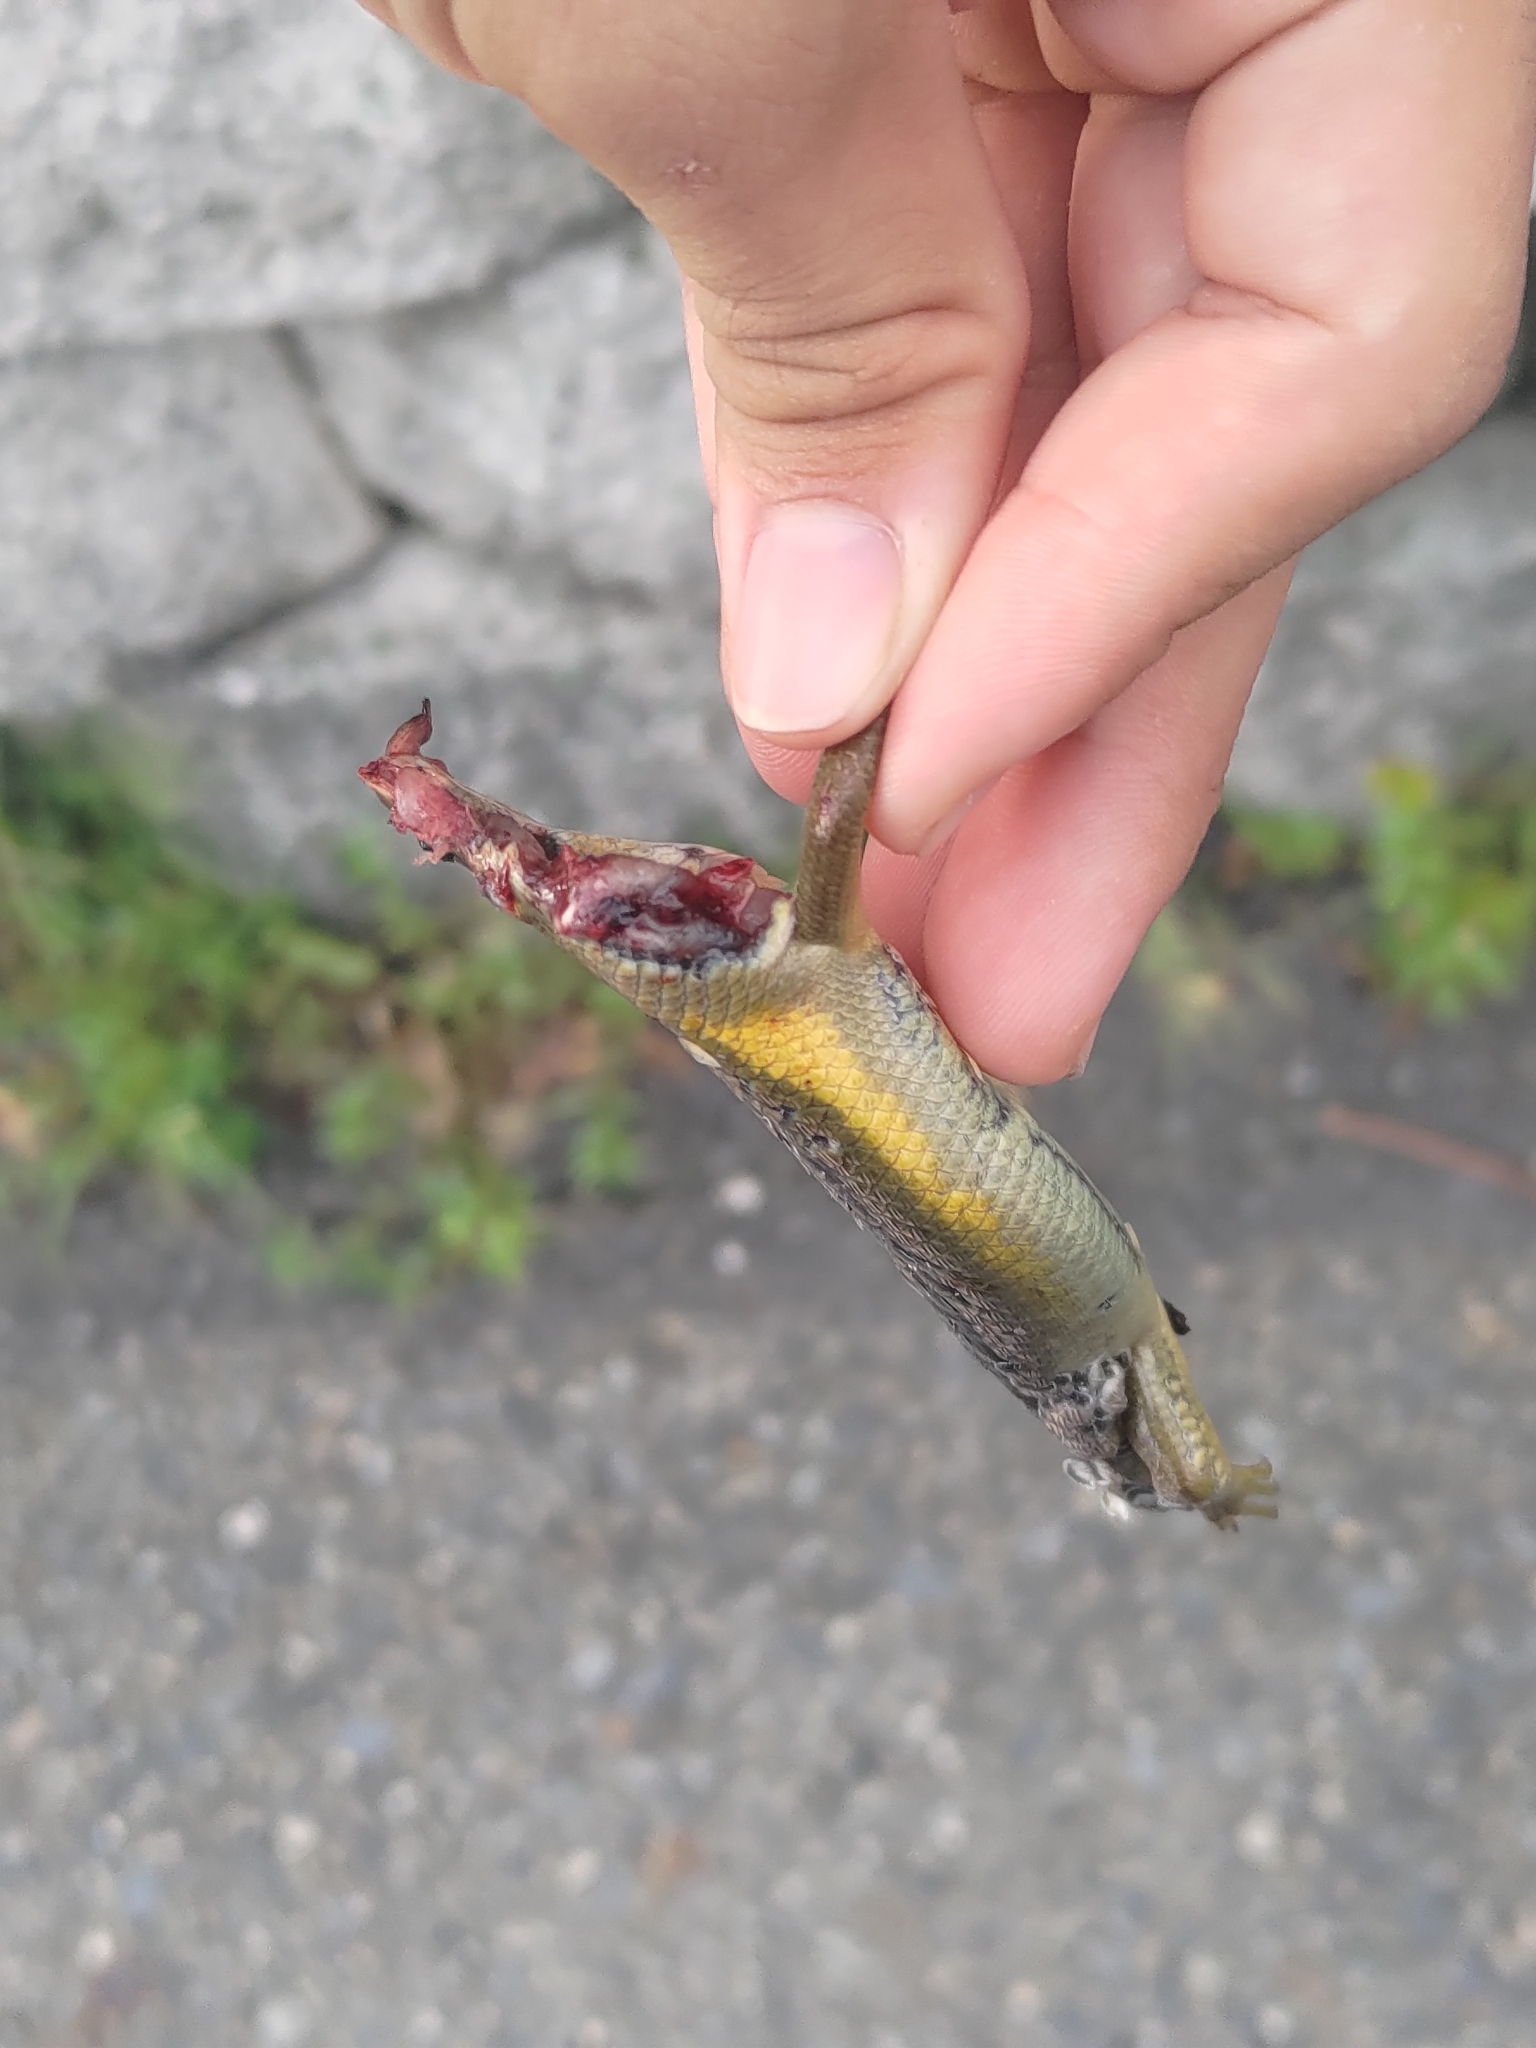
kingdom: Animalia
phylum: Chordata
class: Squamata
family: Scincidae
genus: Eutropis
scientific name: Eutropis multifasciata
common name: Common mabuya
